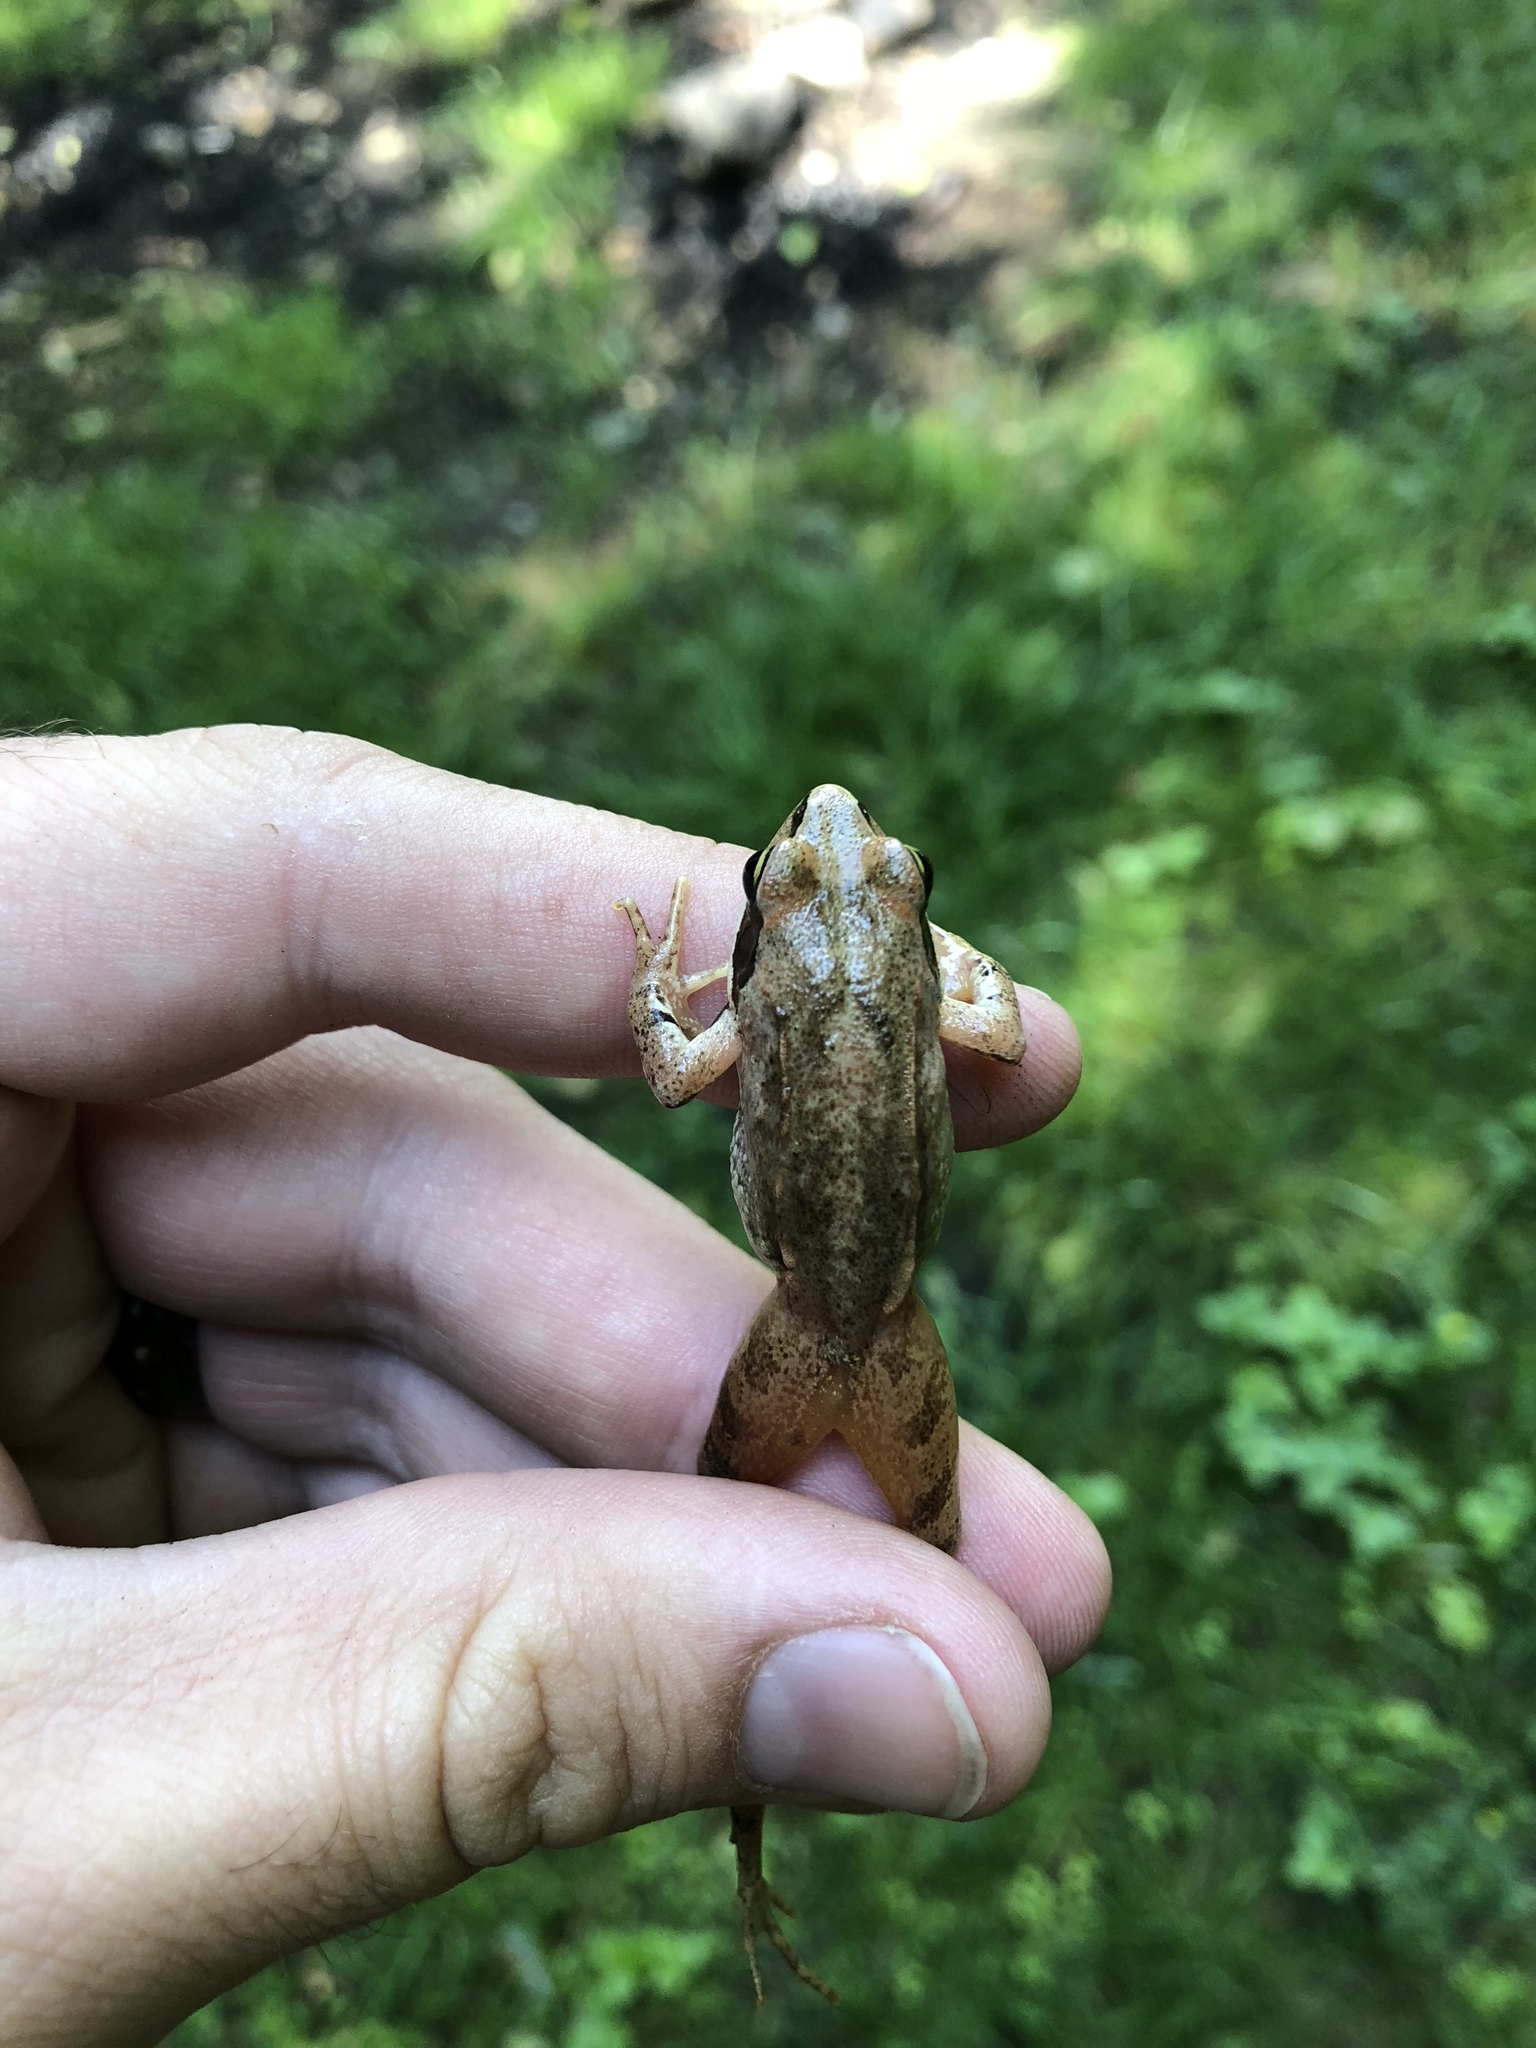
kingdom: Animalia
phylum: Chordata
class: Amphibia
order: Anura
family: Ranidae
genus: Rana
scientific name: Rana dalmatina
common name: Agile frog
